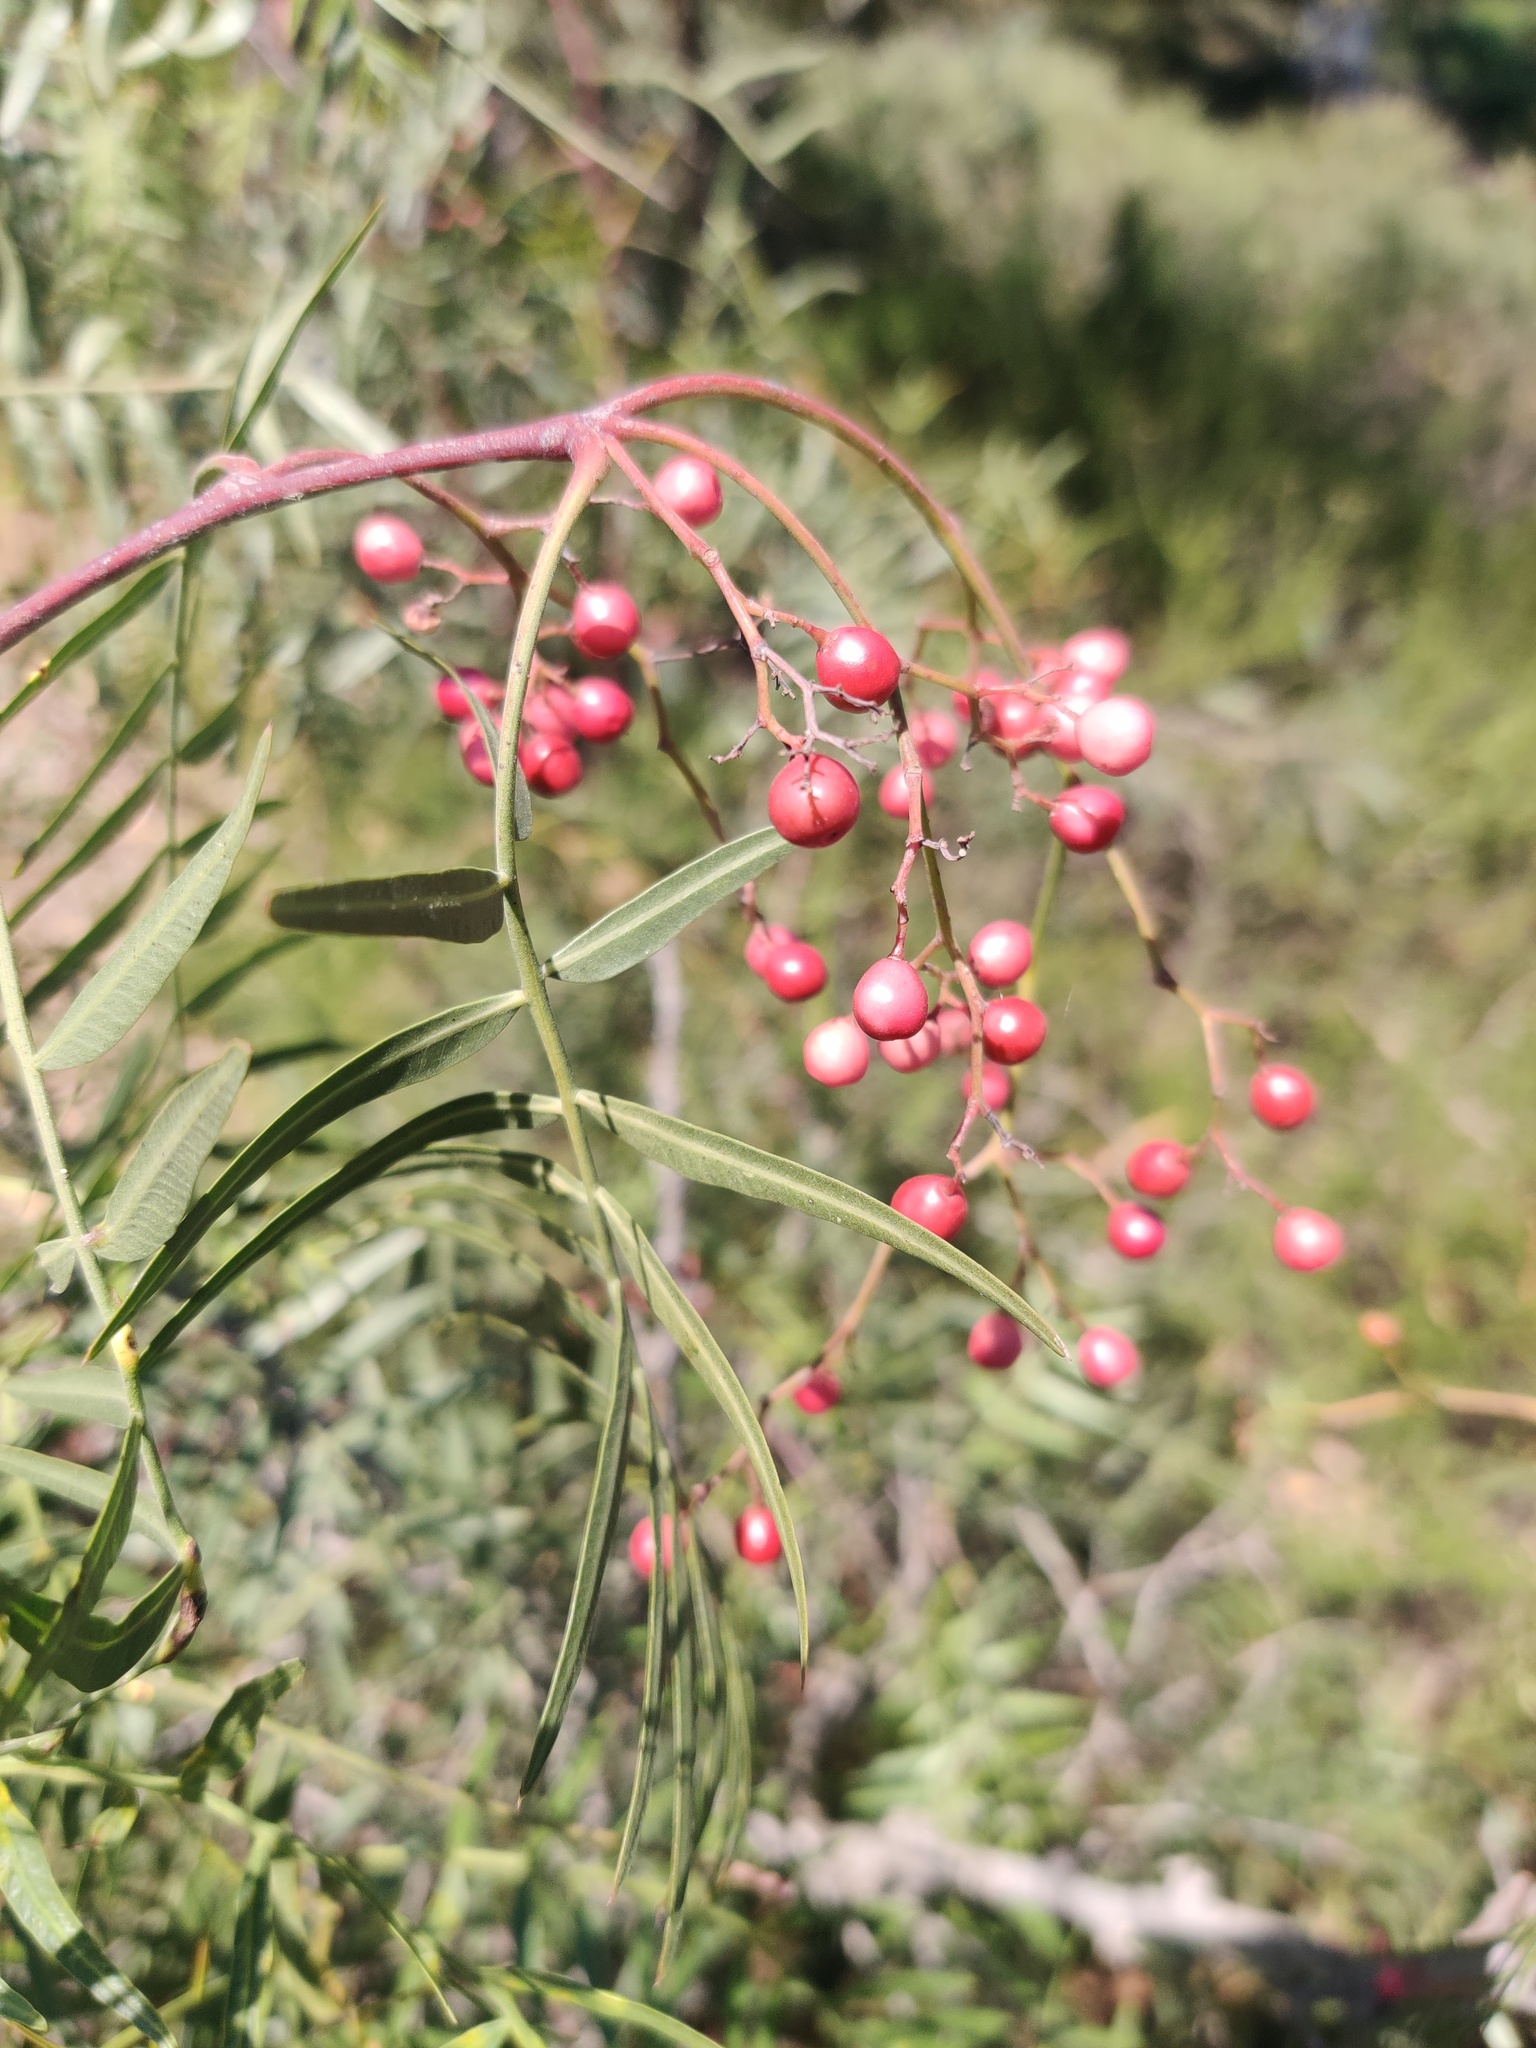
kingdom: Plantae
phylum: Tracheophyta
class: Magnoliopsida
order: Sapindales
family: Anacardiaceae
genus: Schinus
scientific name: Schinus molle
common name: Peruvian peppertree
